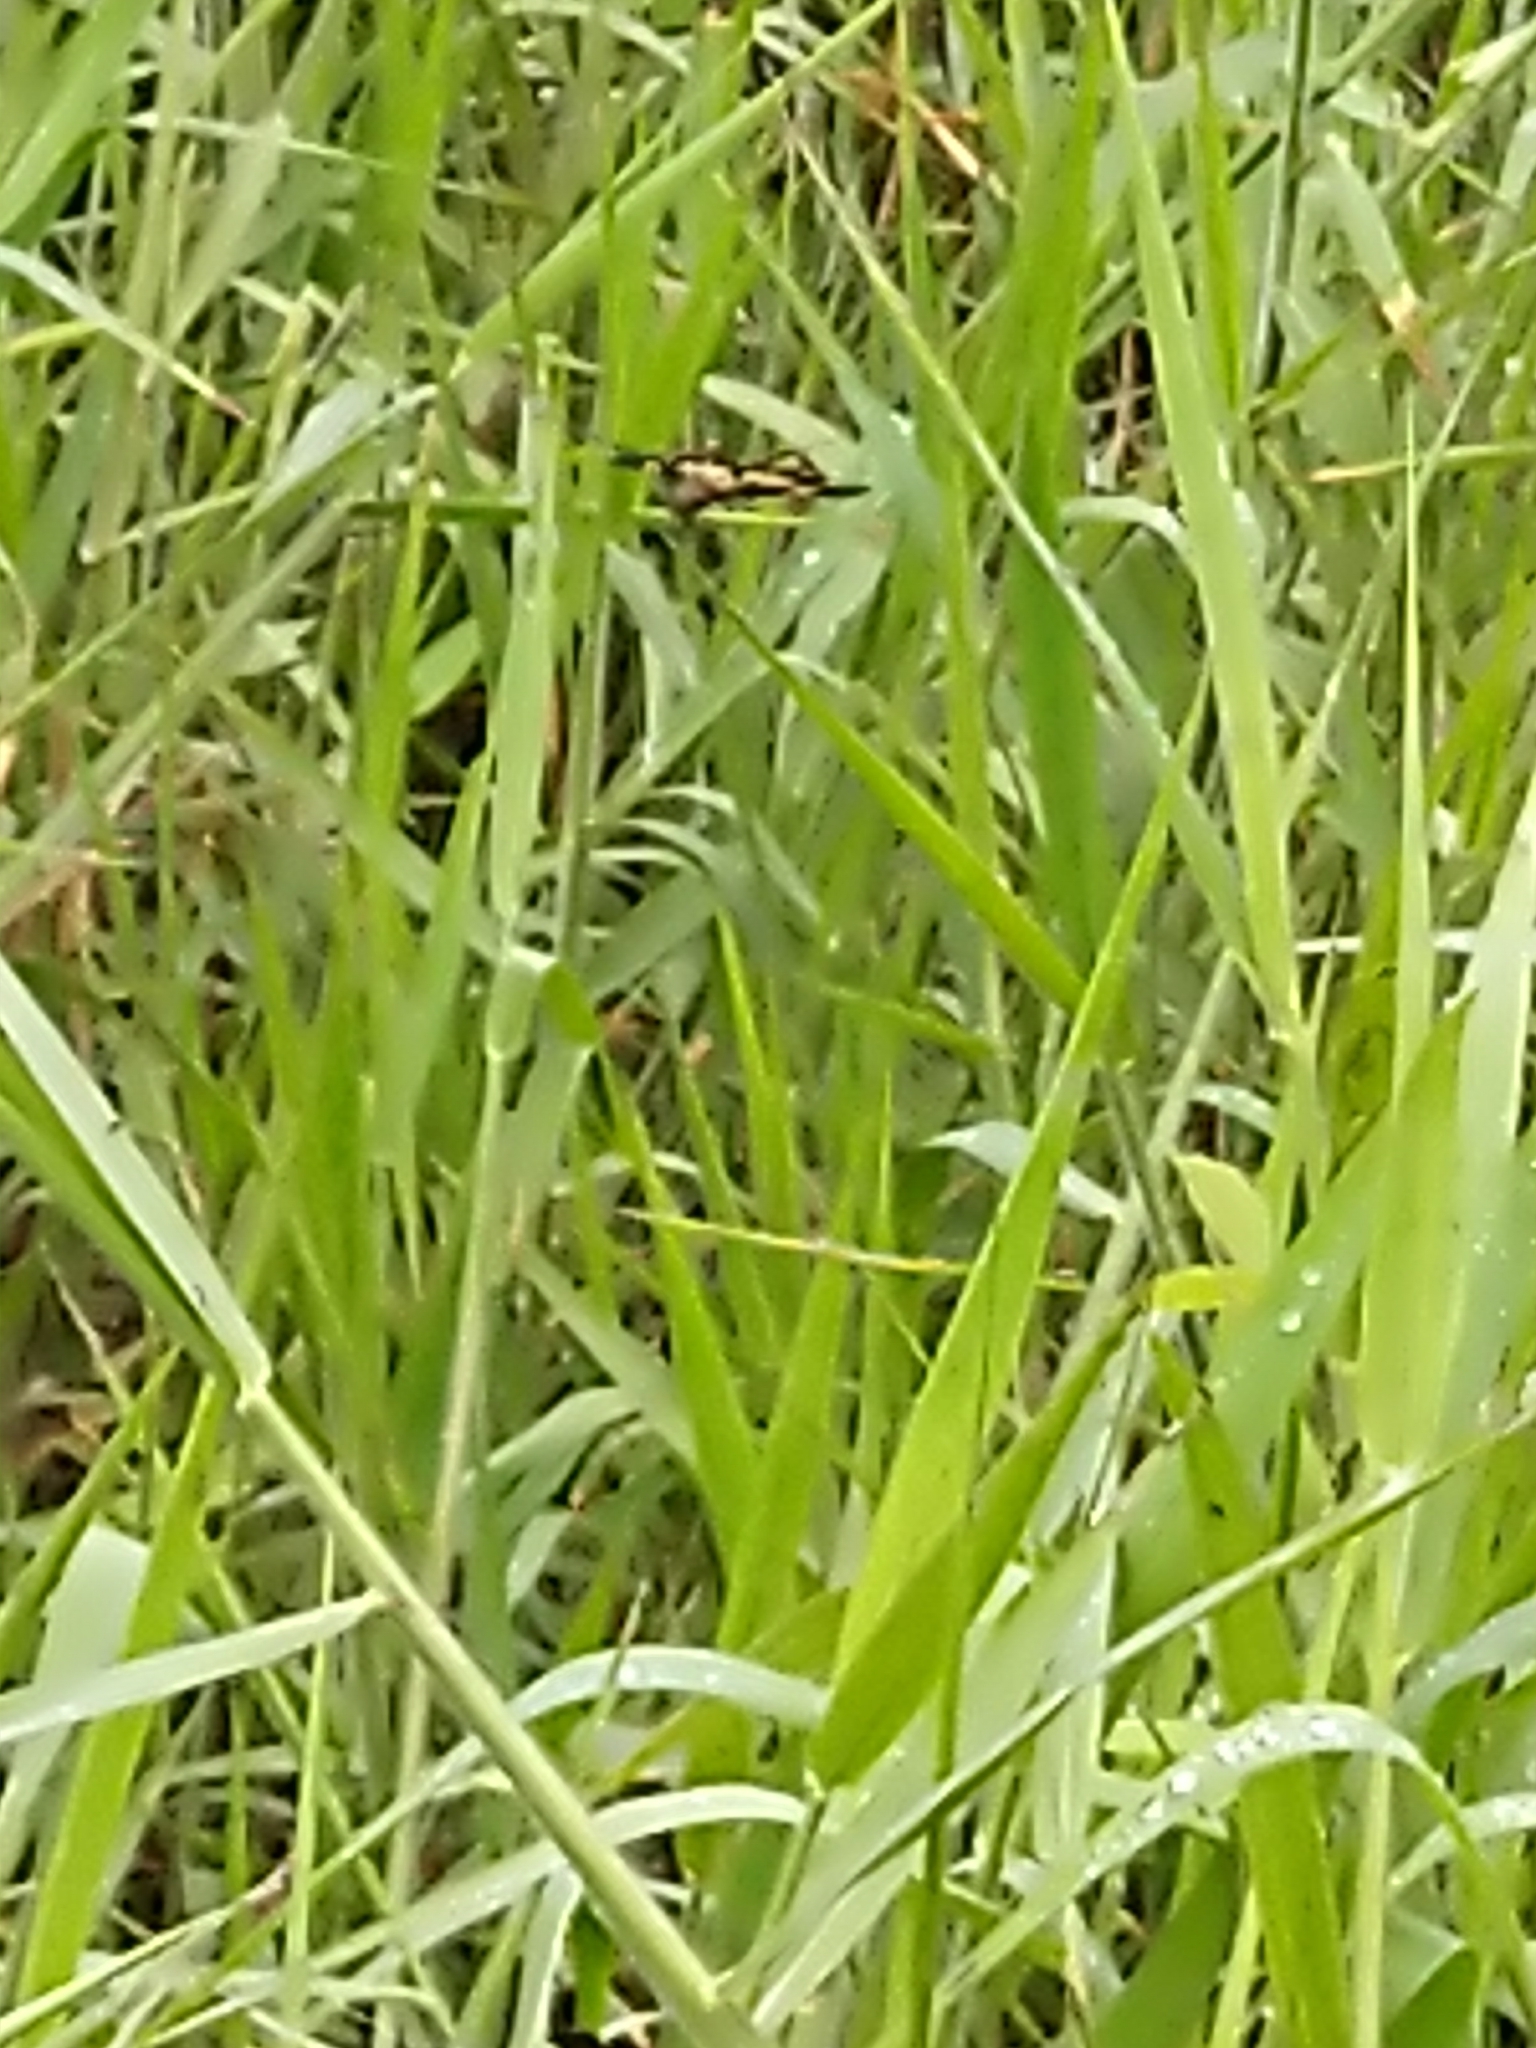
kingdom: Animalia
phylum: Arthropoda
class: Insecta
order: Odonata
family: Libellulidae
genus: Rhyothemis
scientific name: Rhyothemis variegata
